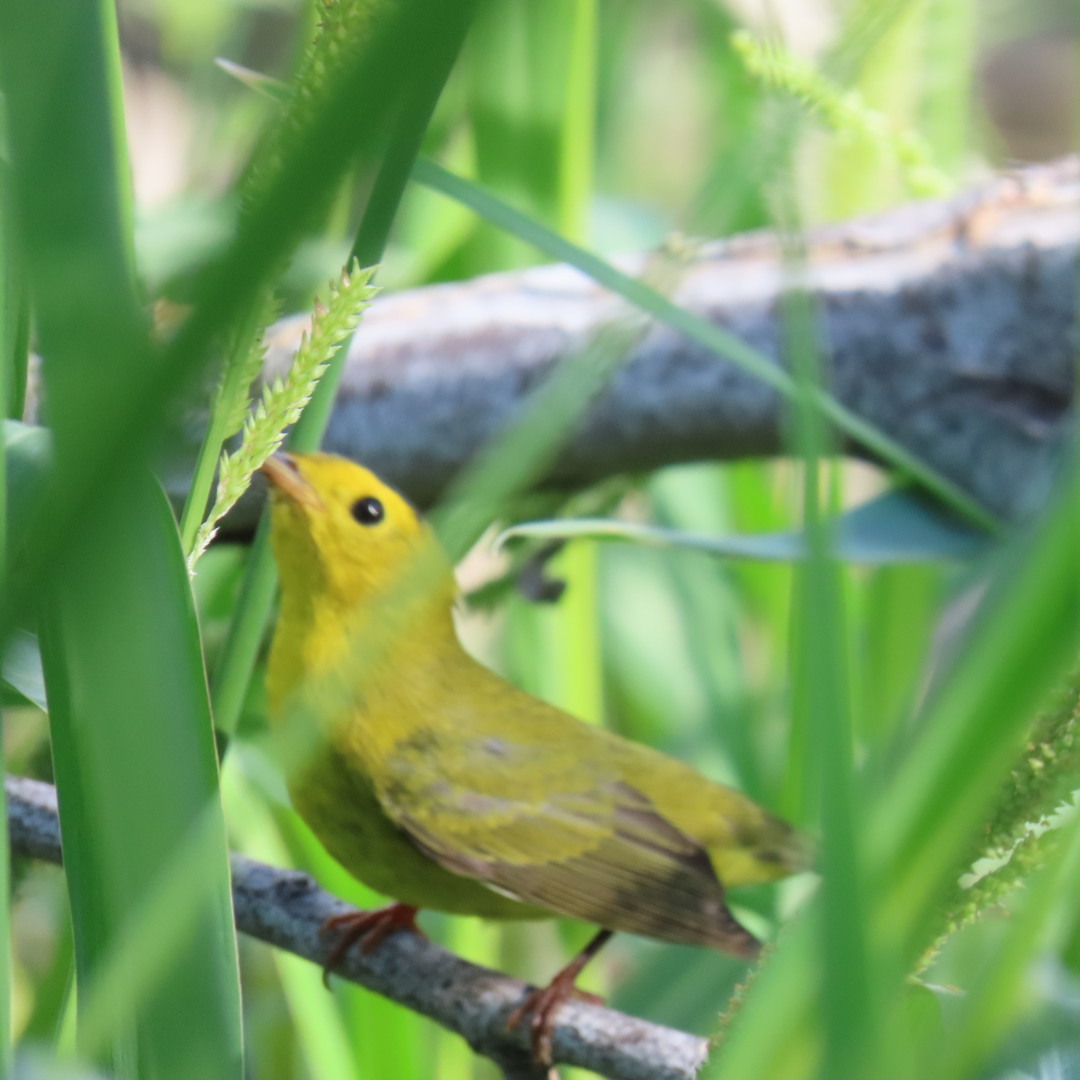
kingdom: Animalia
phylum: Chordata
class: Aves
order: Passeriformes
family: Parulidae
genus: Cardellina
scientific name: Cardellina pusilla
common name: Wilson's warbler
